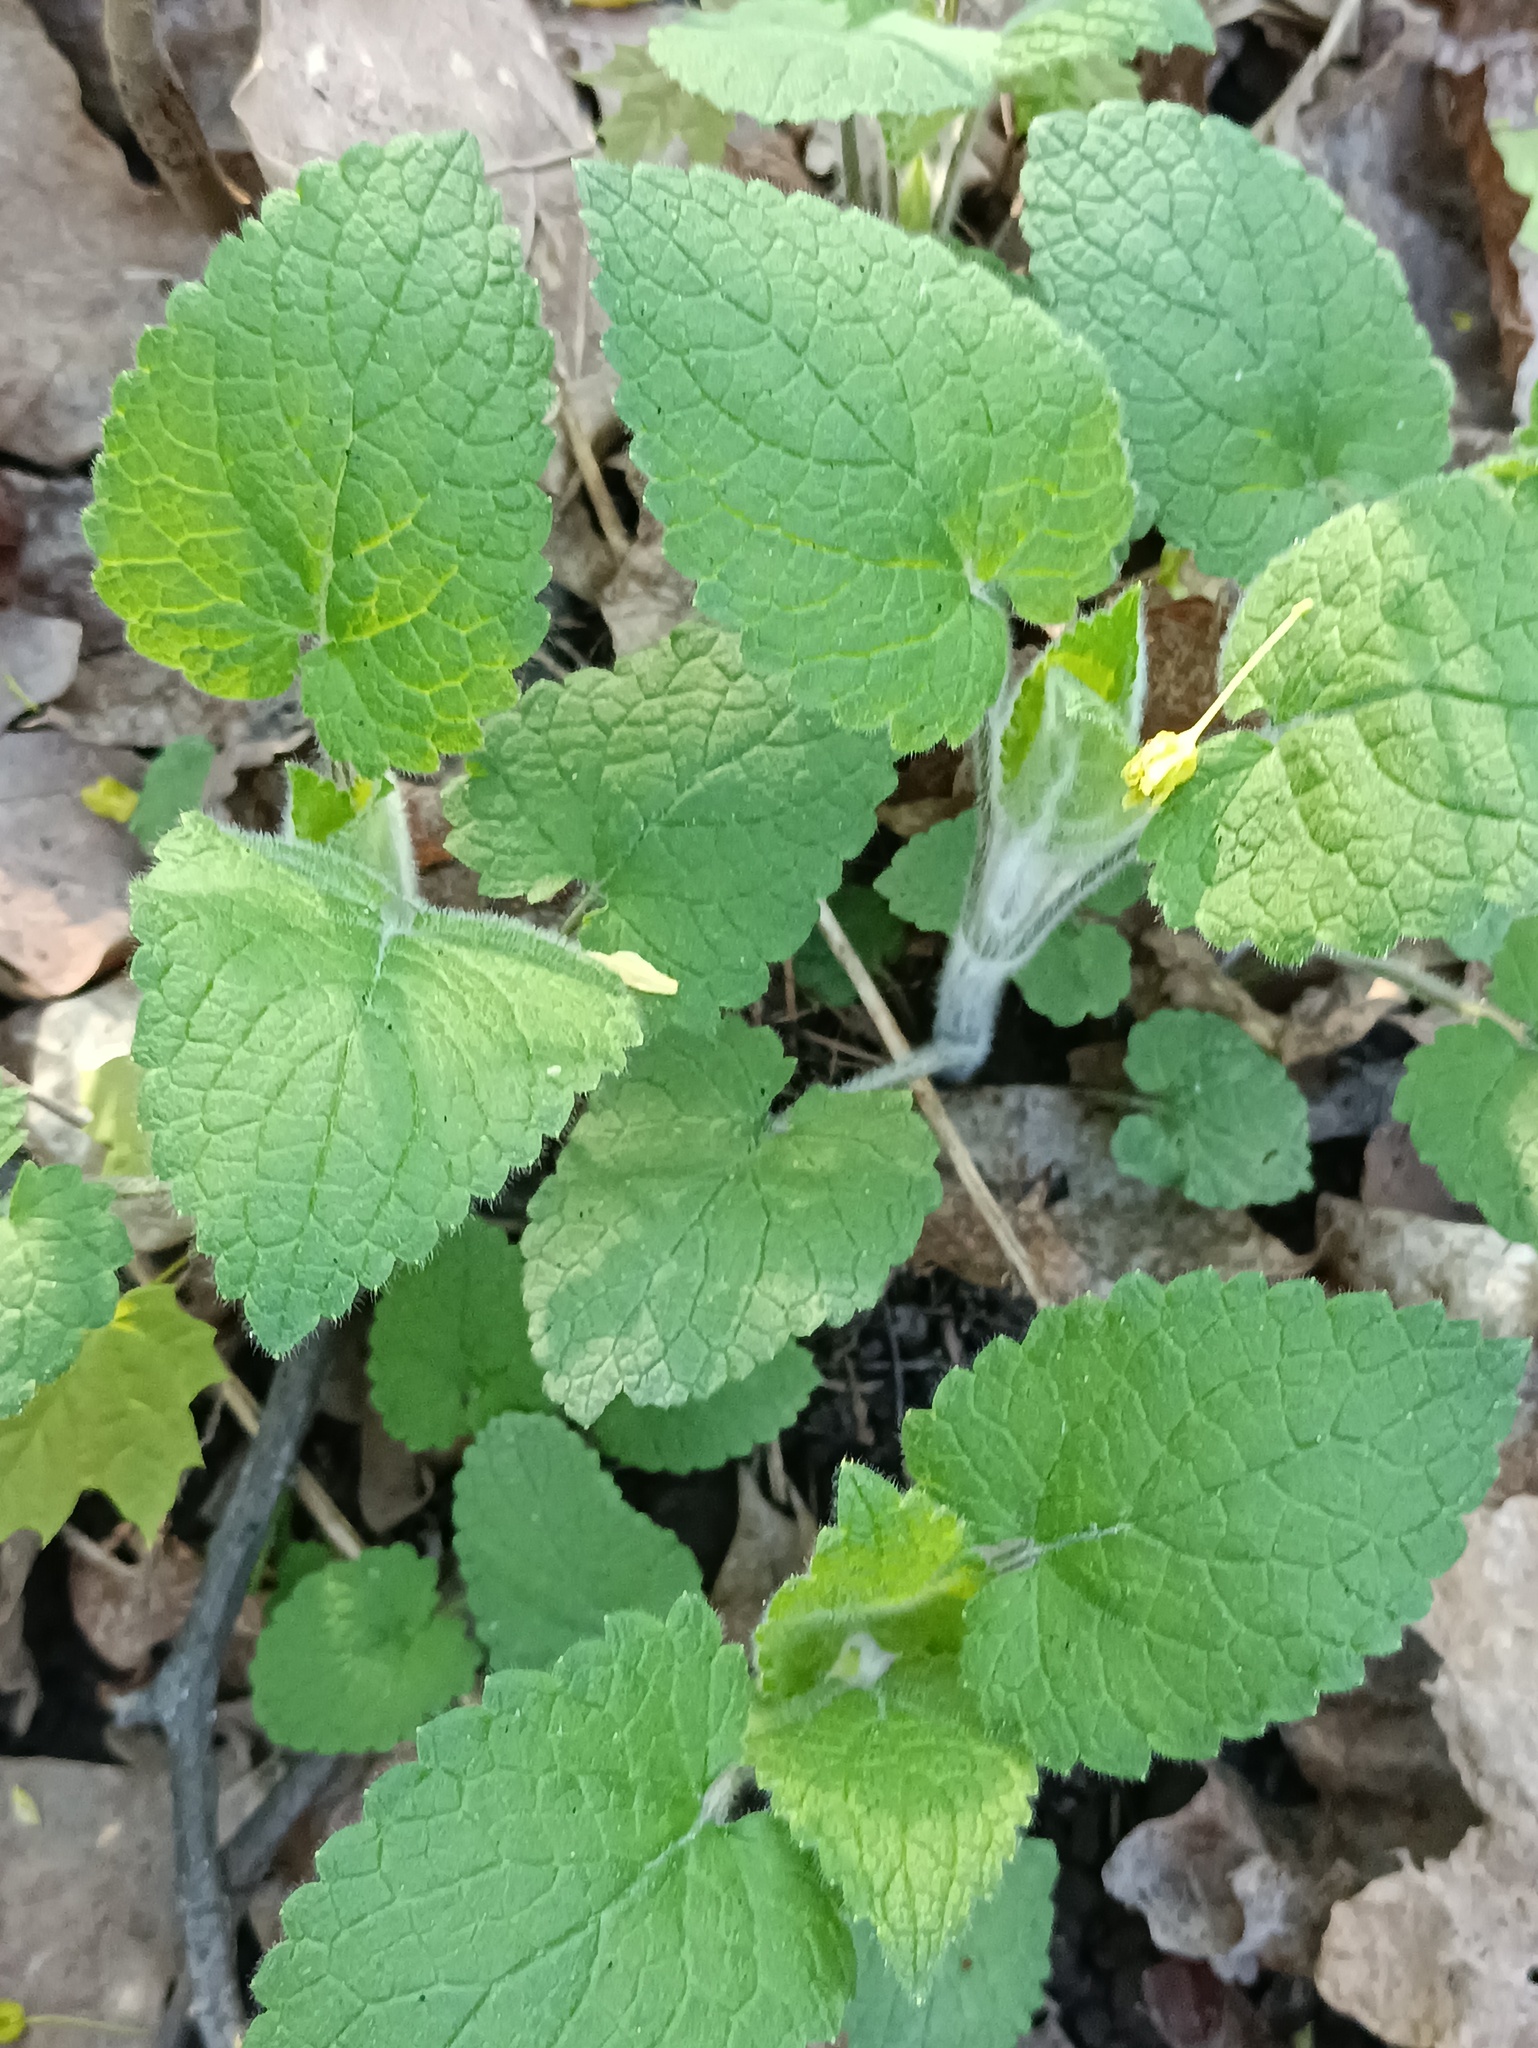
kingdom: Plantae
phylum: Tracheophyta
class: Magnoliopsida
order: Lamiales
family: Lamiaceae
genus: Stachys
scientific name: Stachys sylvatica
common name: Hedge woundwort
